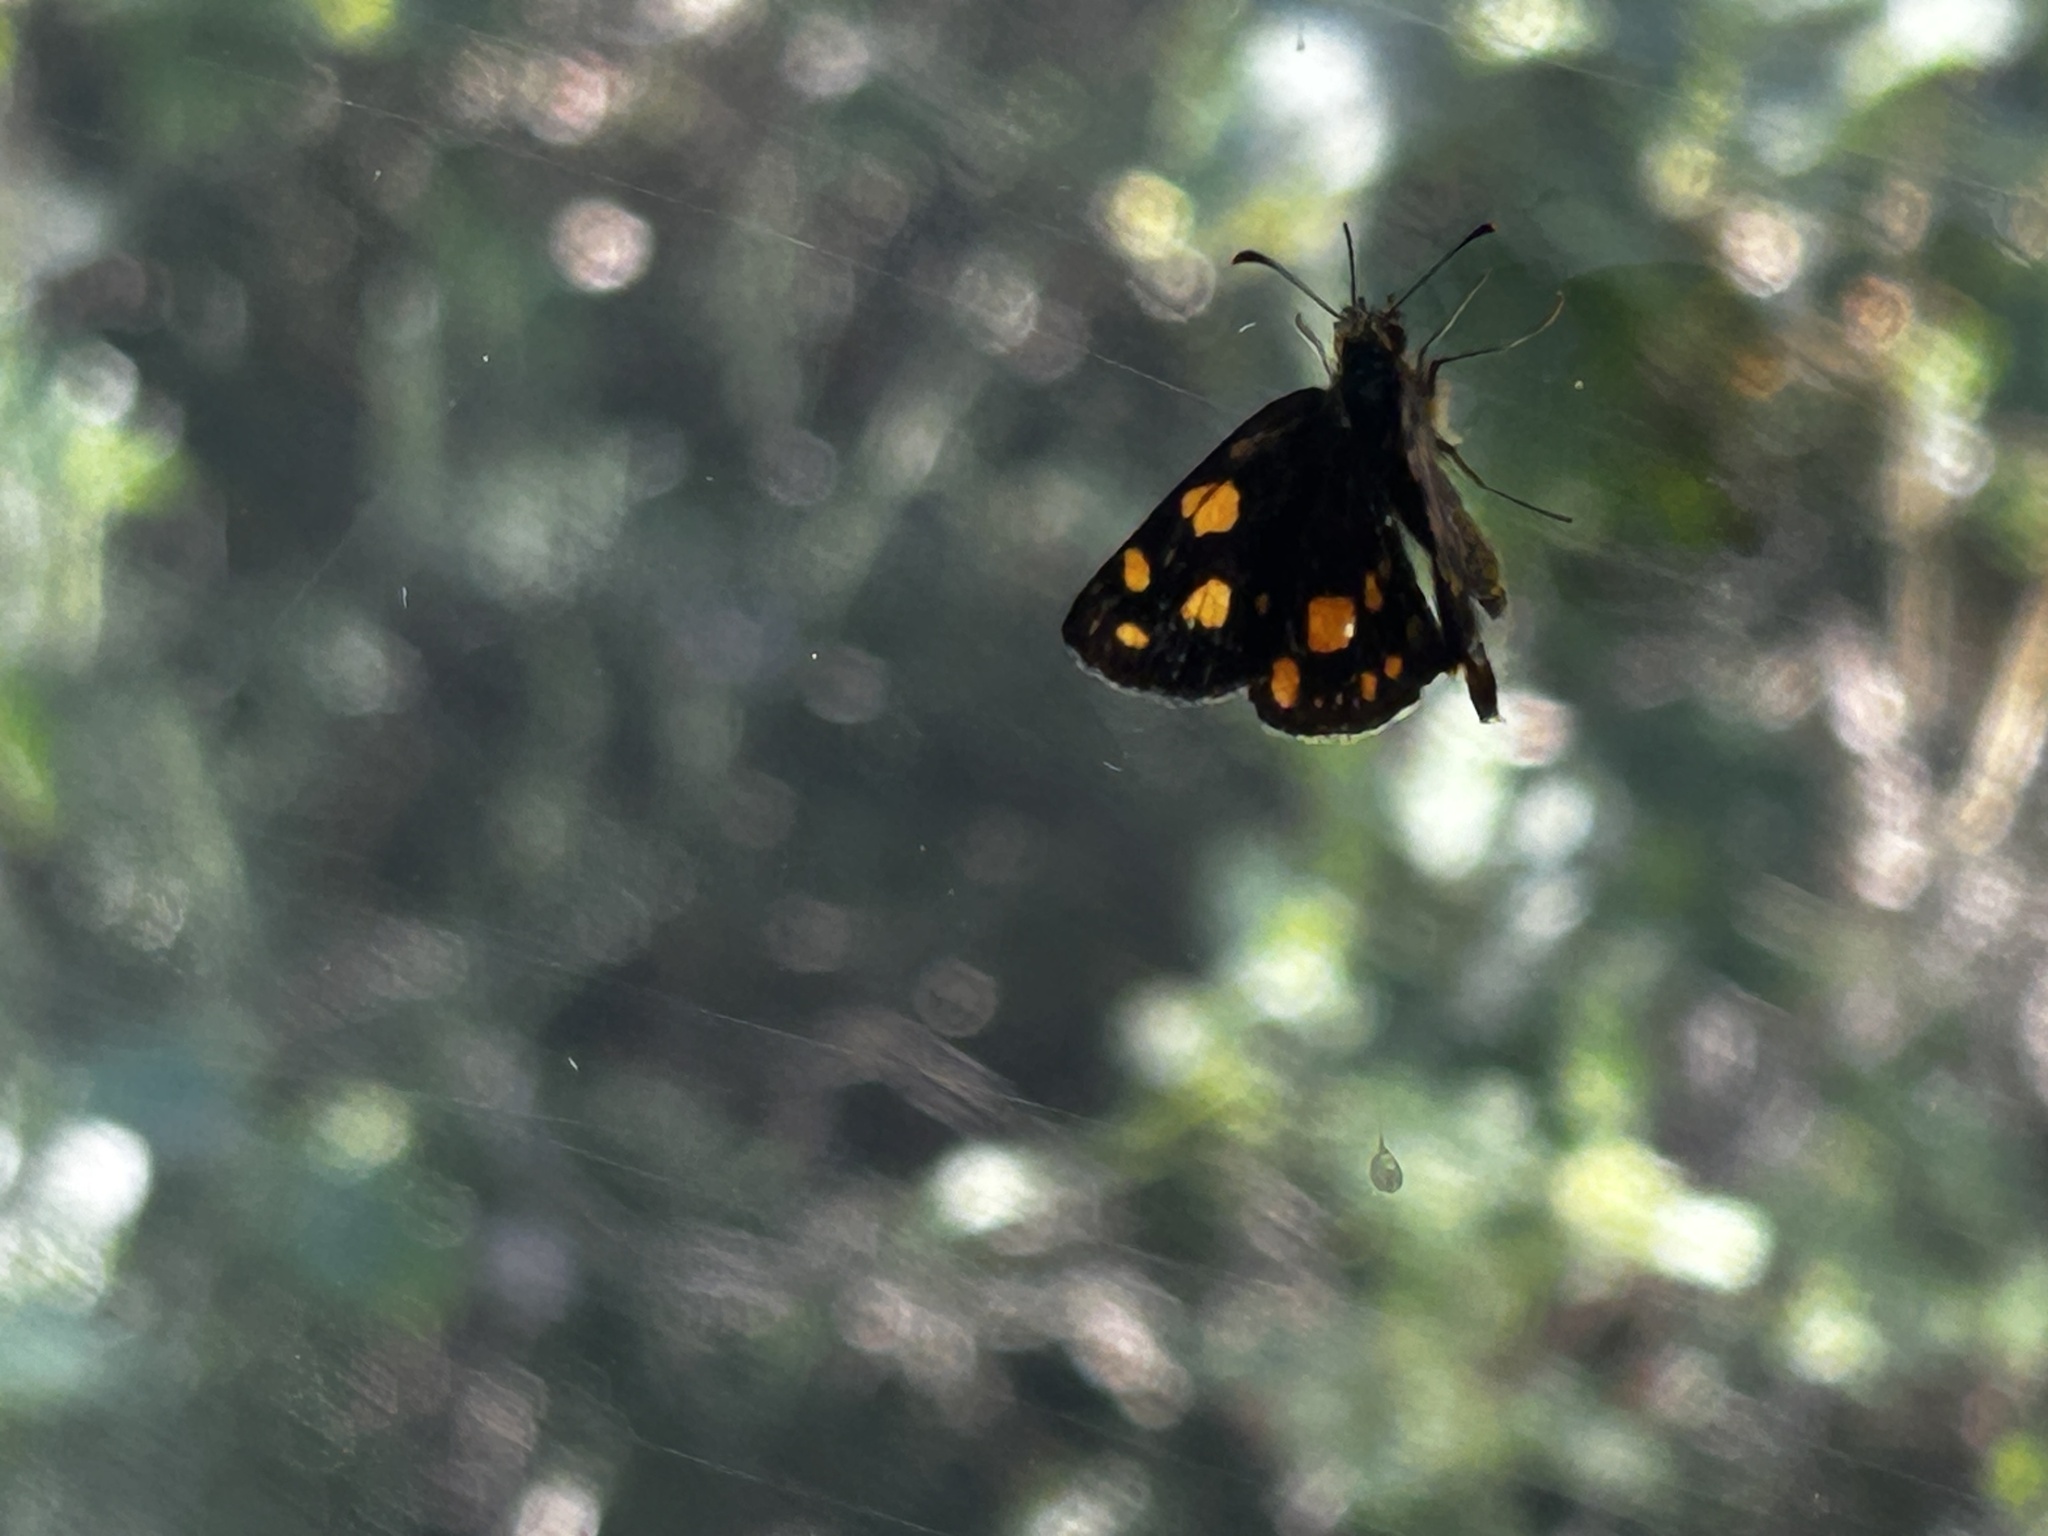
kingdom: Animalia
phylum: Arthropoda
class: Insecta
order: Lepidoptera
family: Hesperiidae
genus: Metisella
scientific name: Metisella metis
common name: Western gold-spotted sylph
